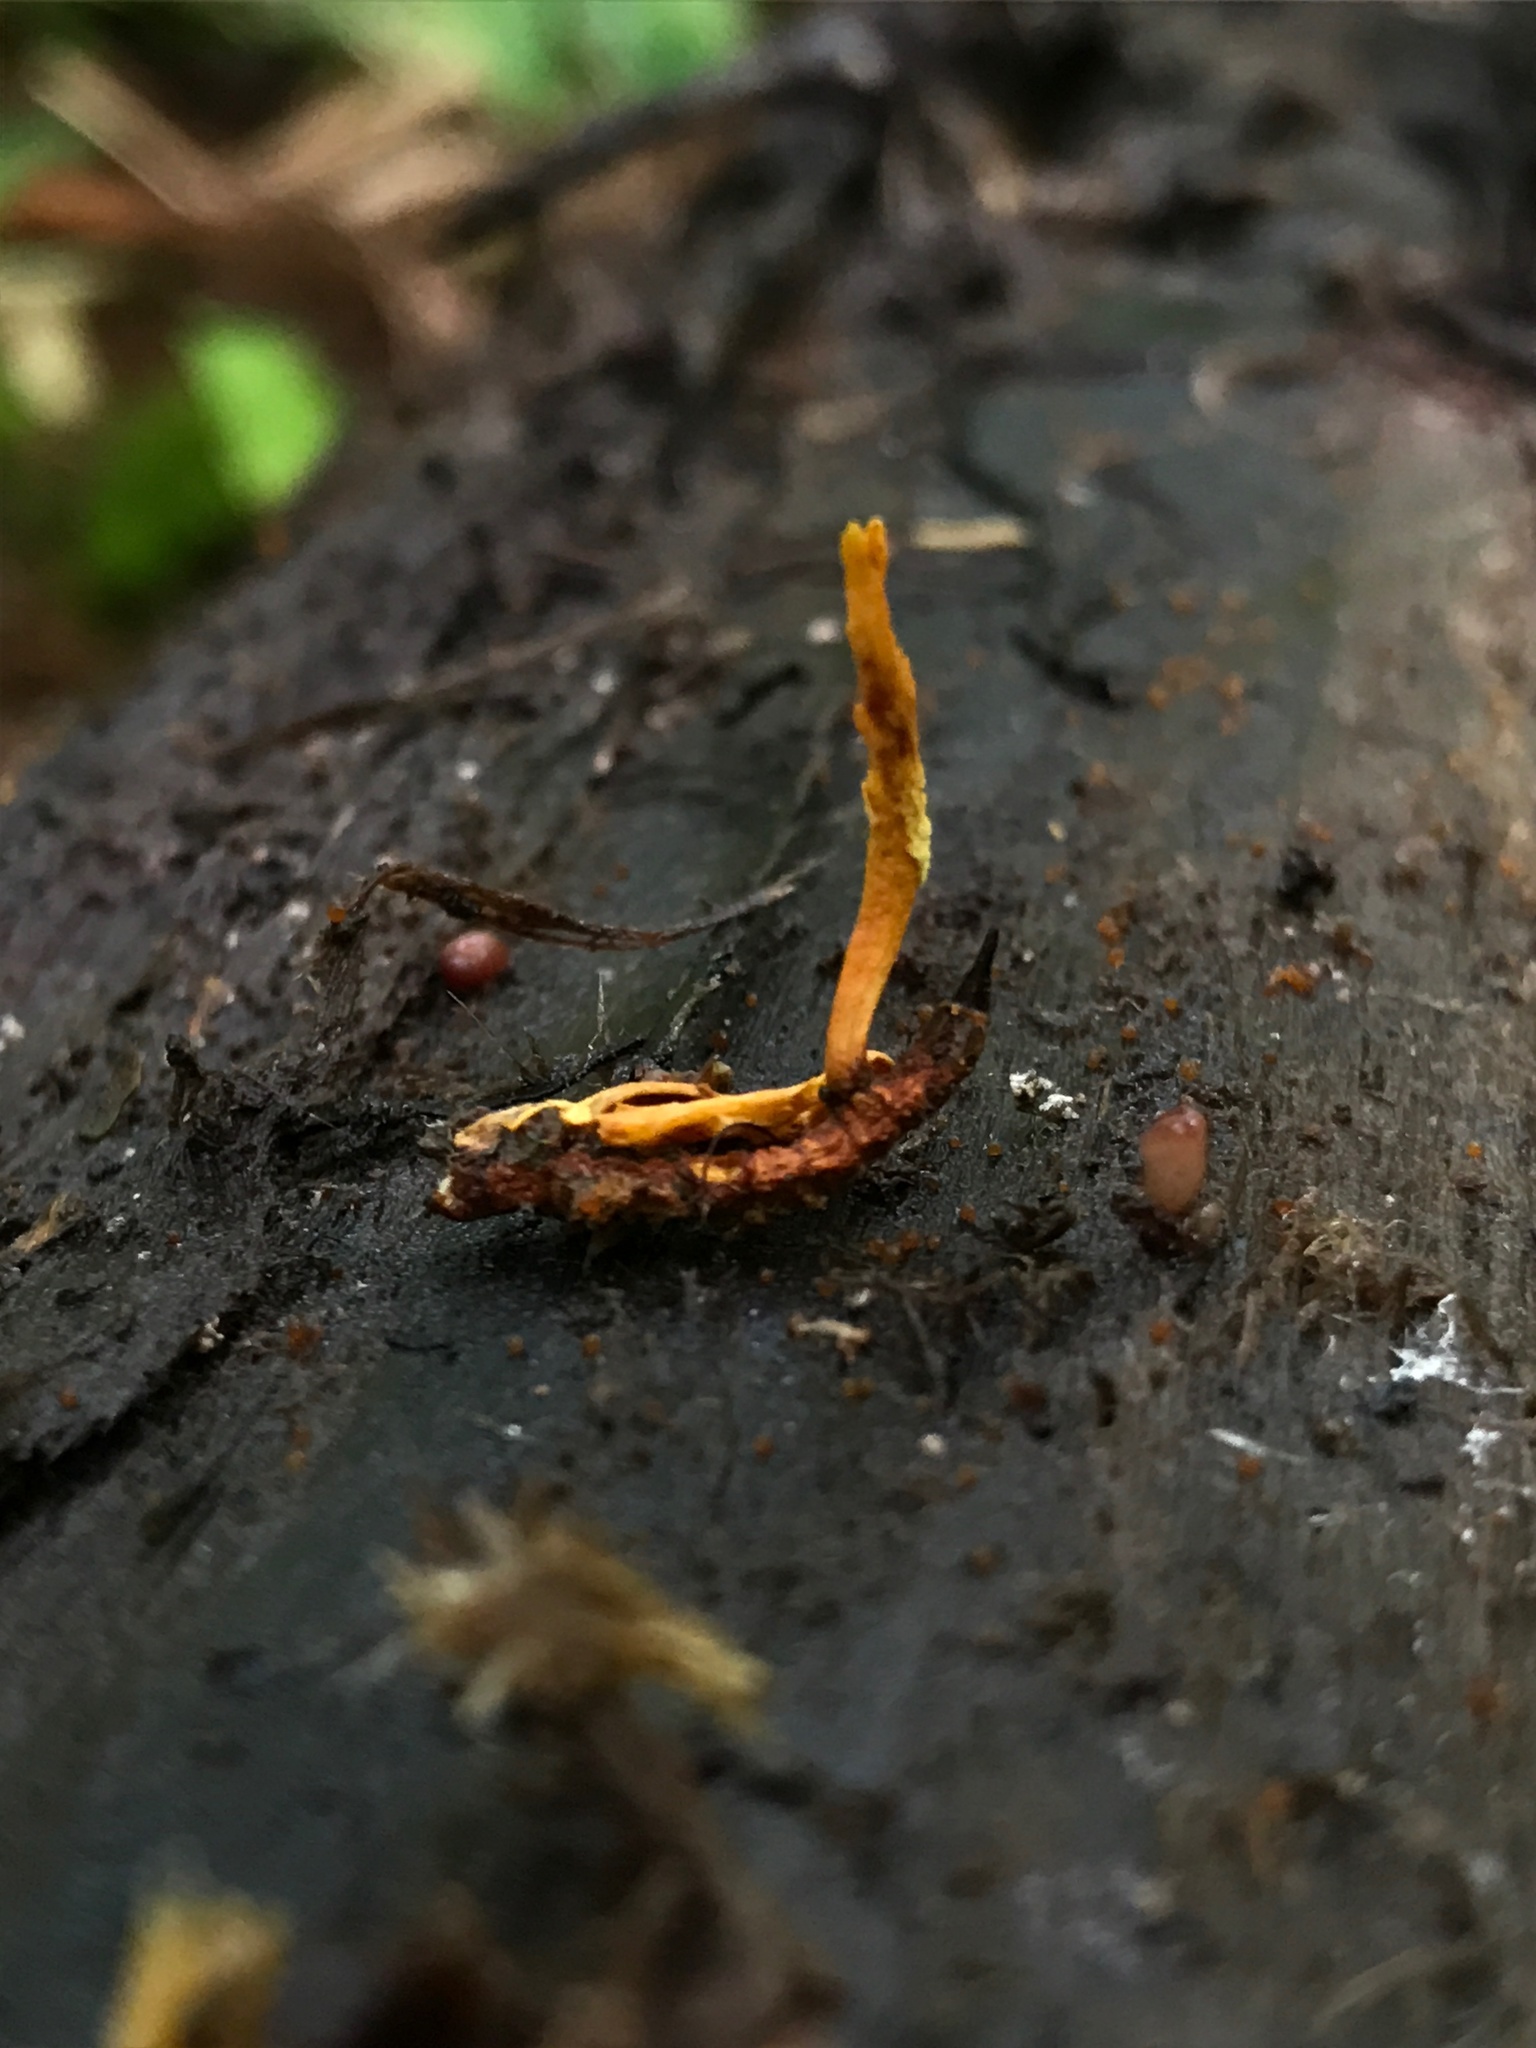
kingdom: Fungi
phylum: Ascomycota
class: Sordariomycetes
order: Hypocreales
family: Ophiocordycipitaceae
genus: Ophiocordyceps
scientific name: Ophiocordyceps variabilis
